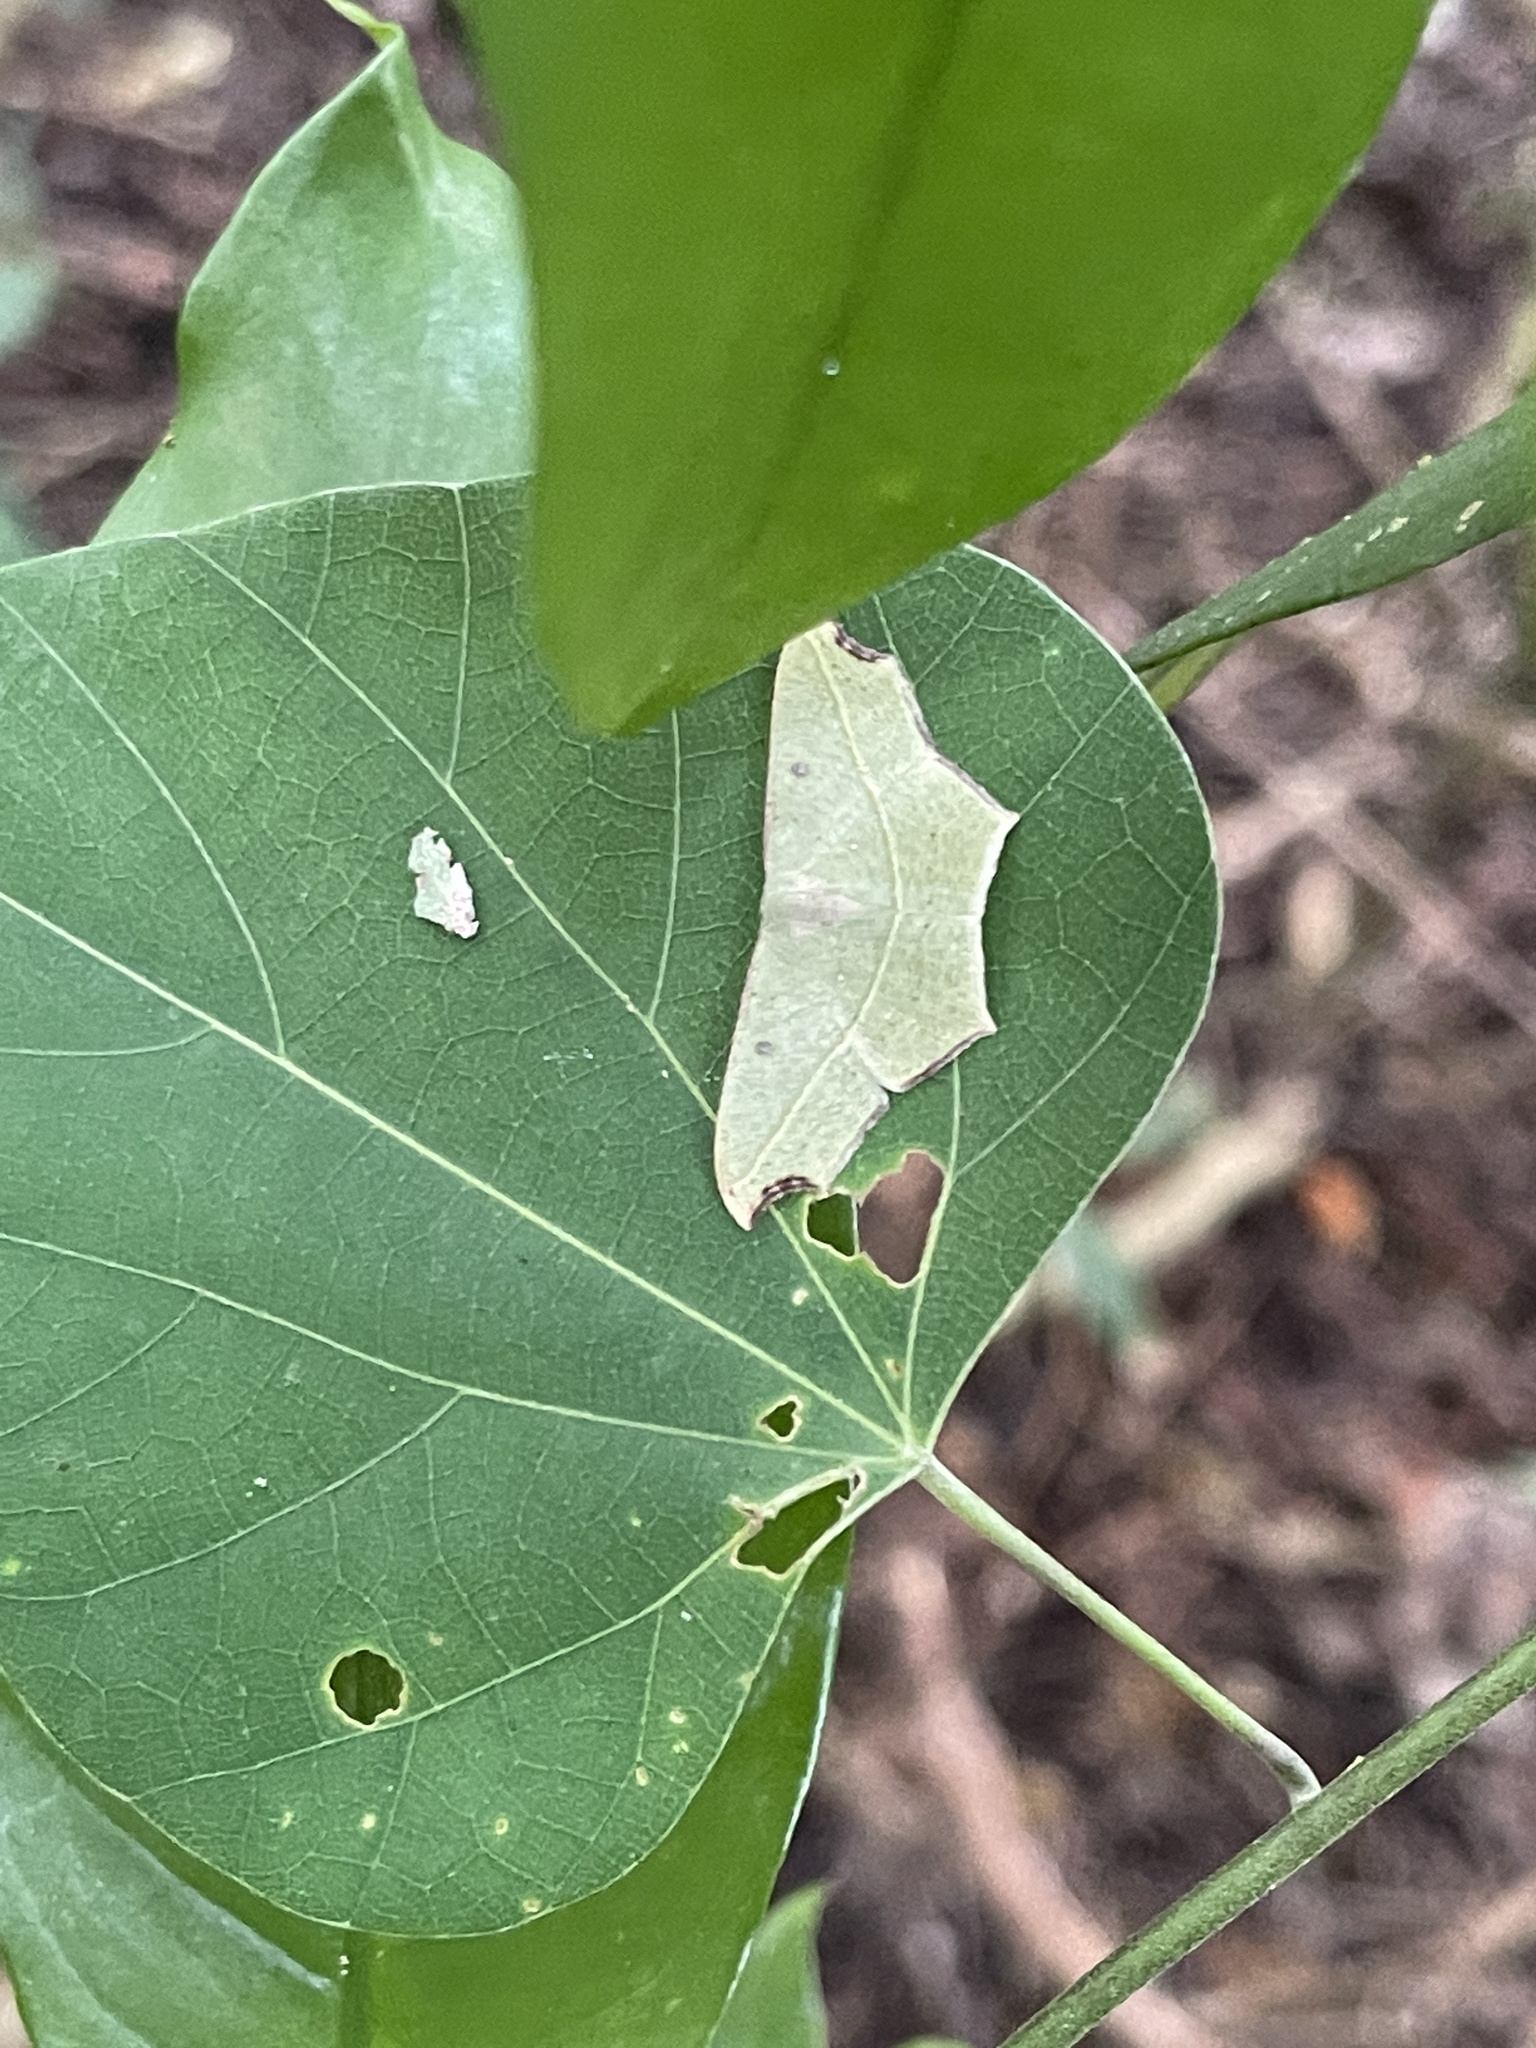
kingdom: Animalia
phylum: Arthropoda
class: Insecta
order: Lepidoptera
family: Geometridae
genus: Traminda
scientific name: Traminda aventiaria
